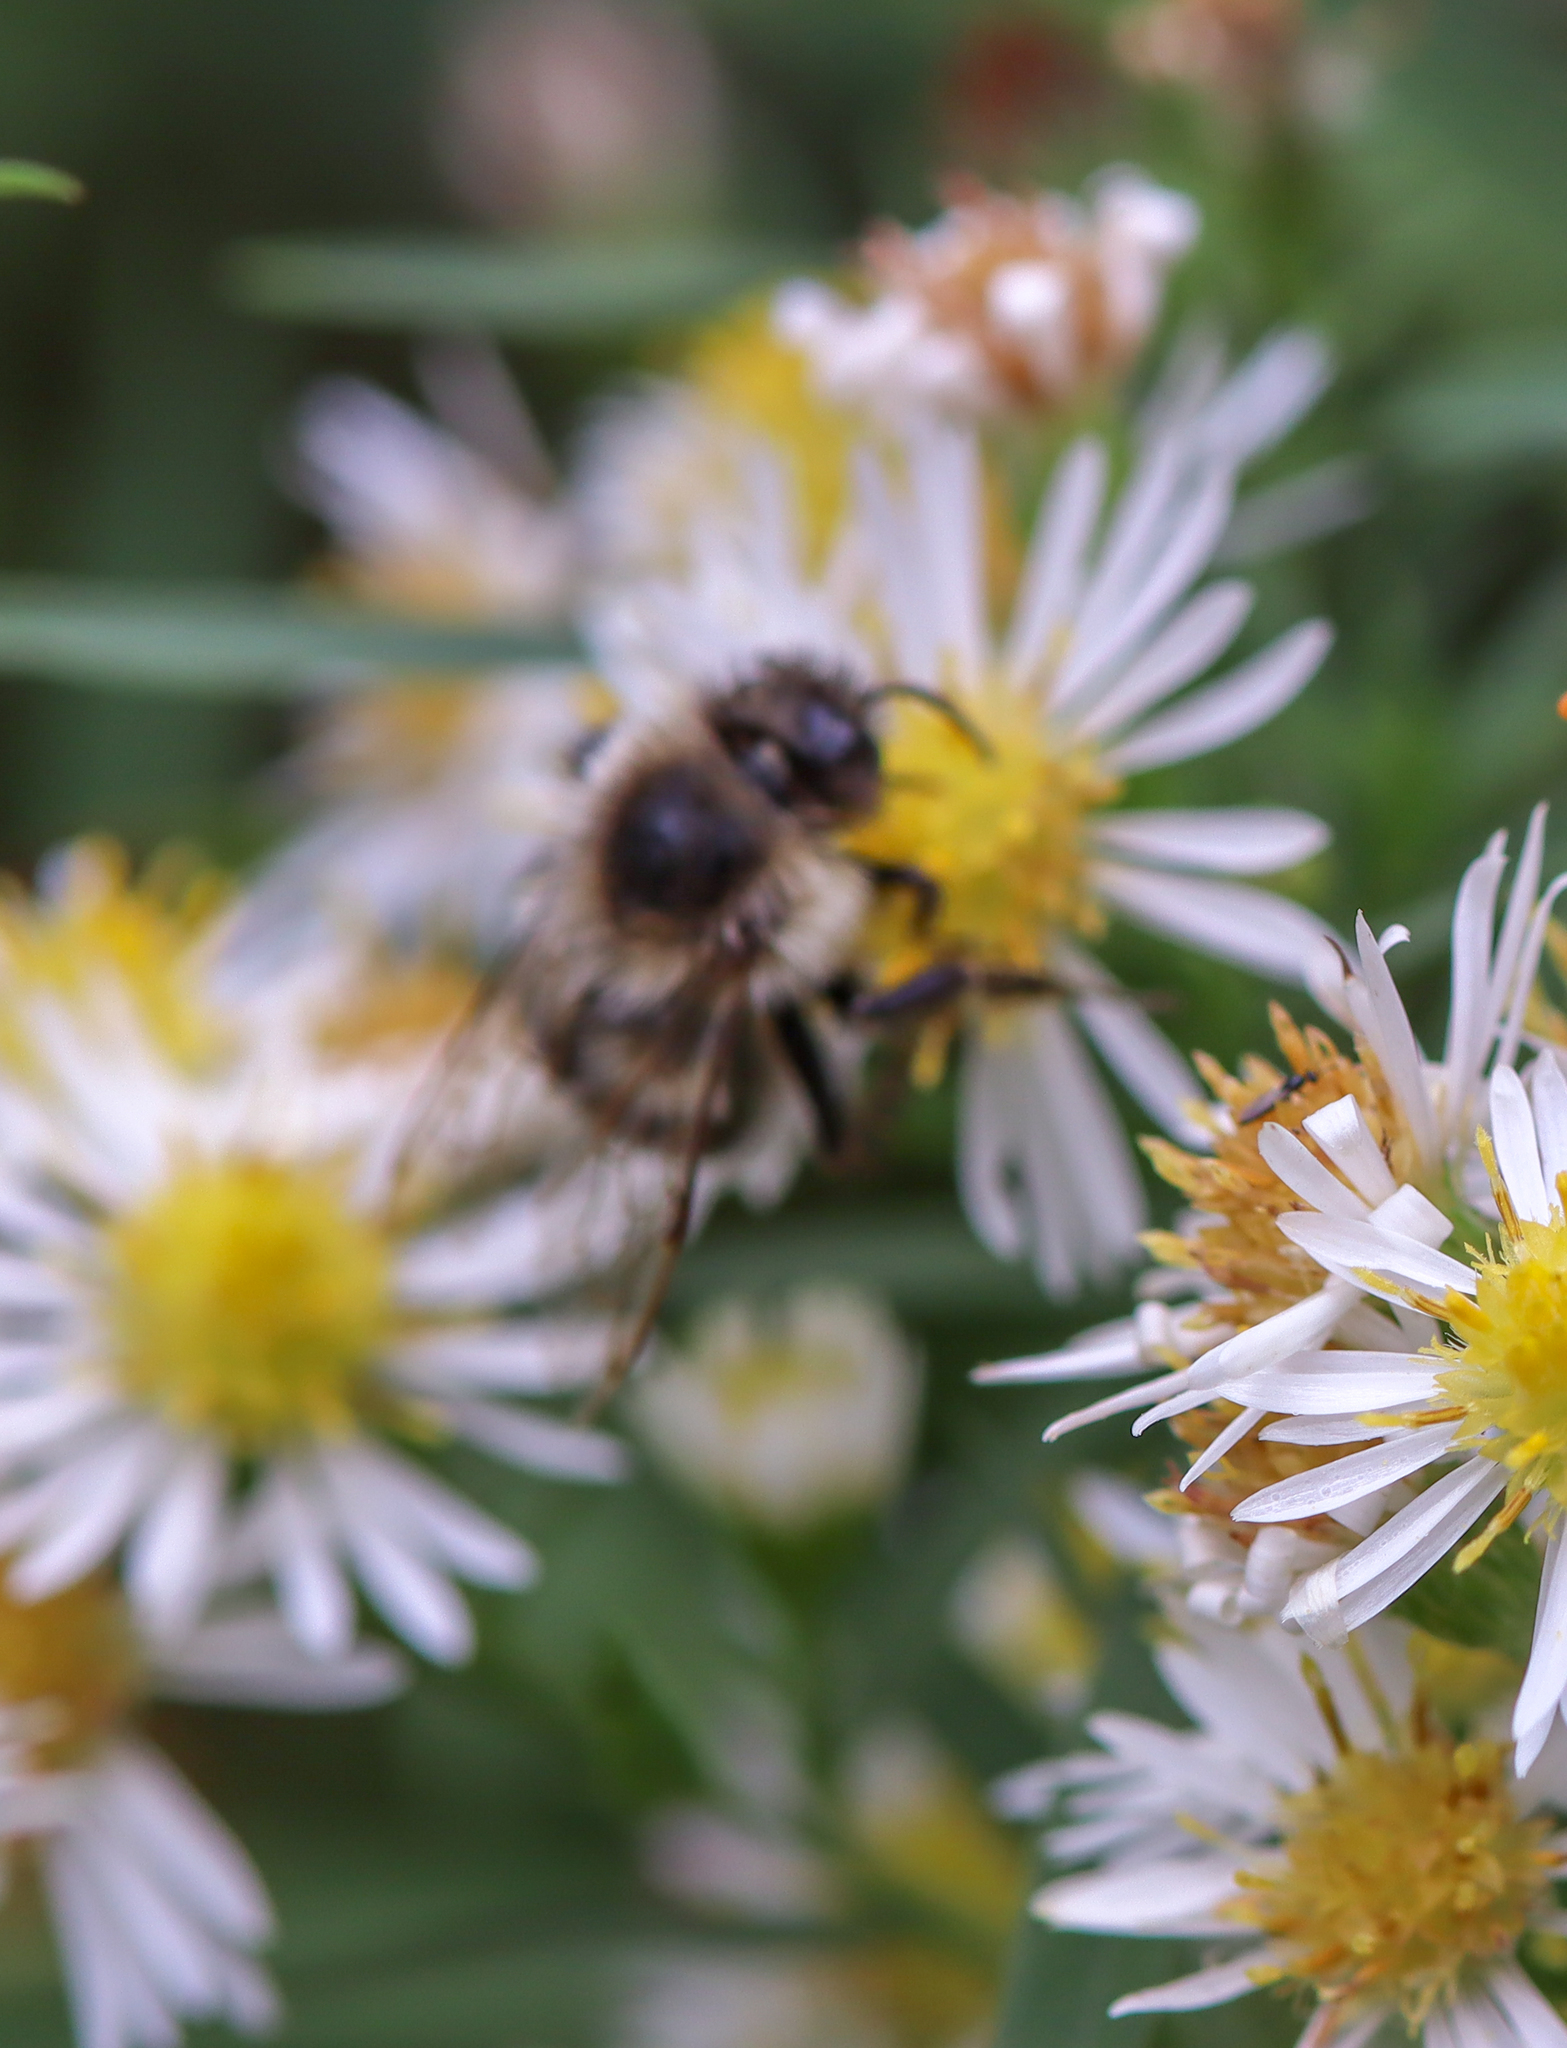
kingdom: Animalia
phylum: Arthropoda
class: Insecta
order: Hymenoptera
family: Apidae
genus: Bombus
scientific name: Bombus impatiens
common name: Common eastern bumble bee
